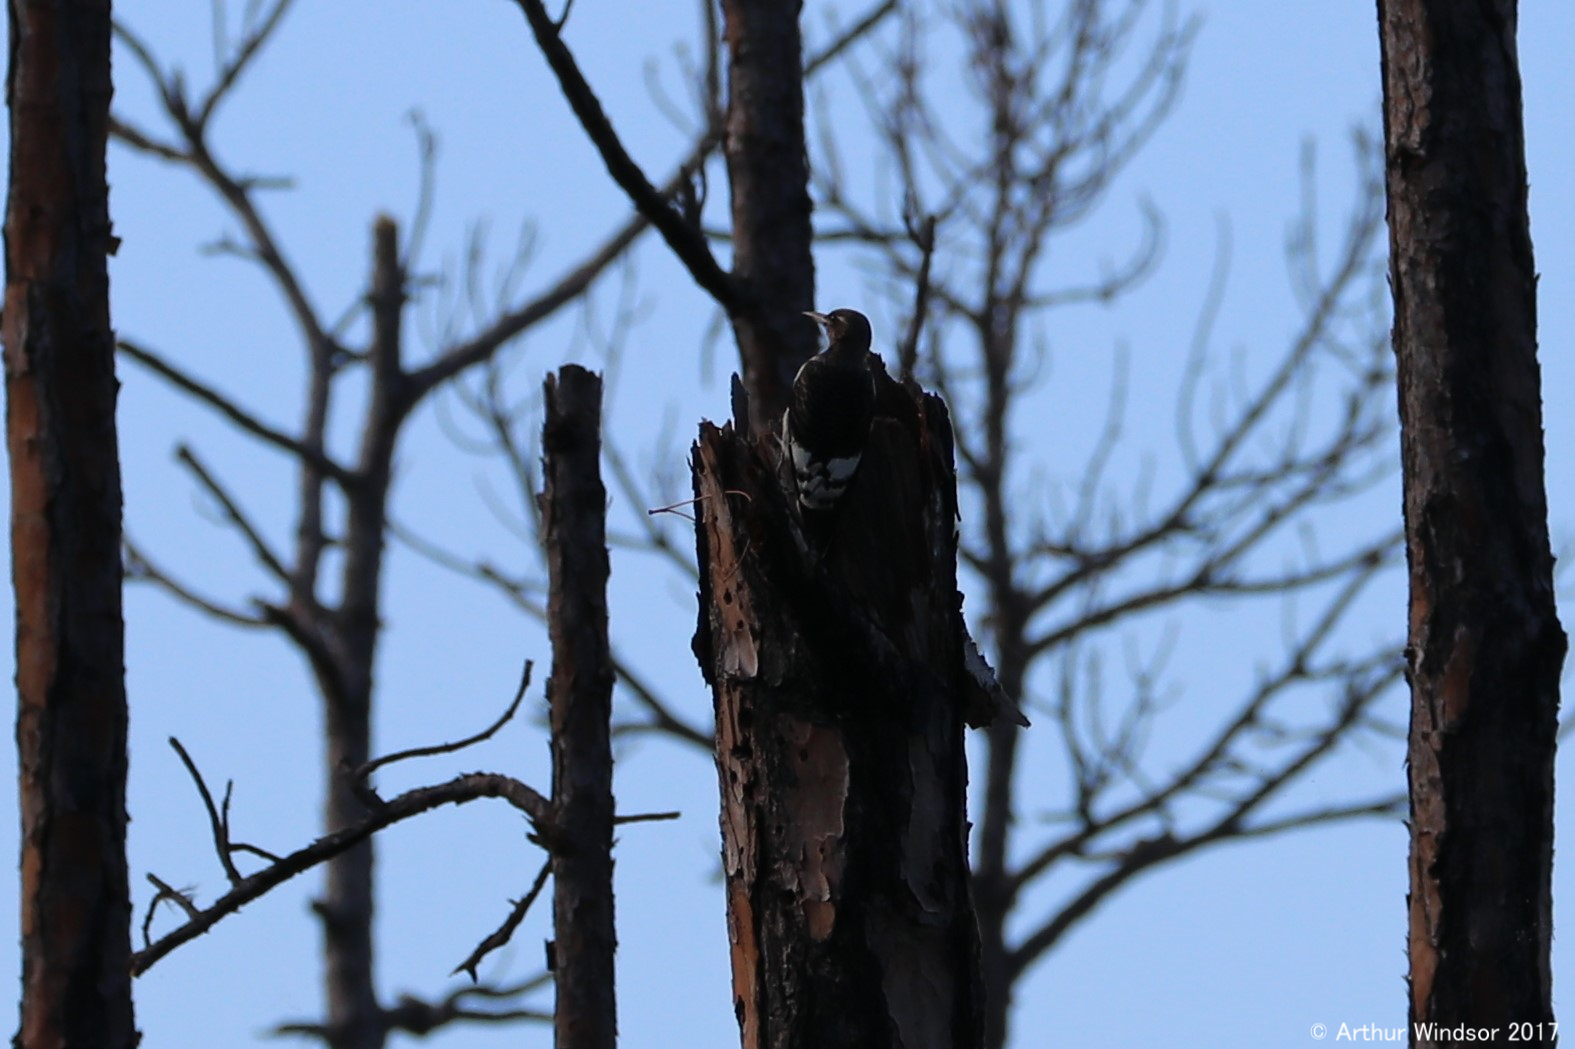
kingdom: Animalia
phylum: Chordata
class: Aves
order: Piciformes
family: Picidae
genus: Melanerpes
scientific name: Melanerpes erythrocephalus
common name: Red-headed woodpecker
